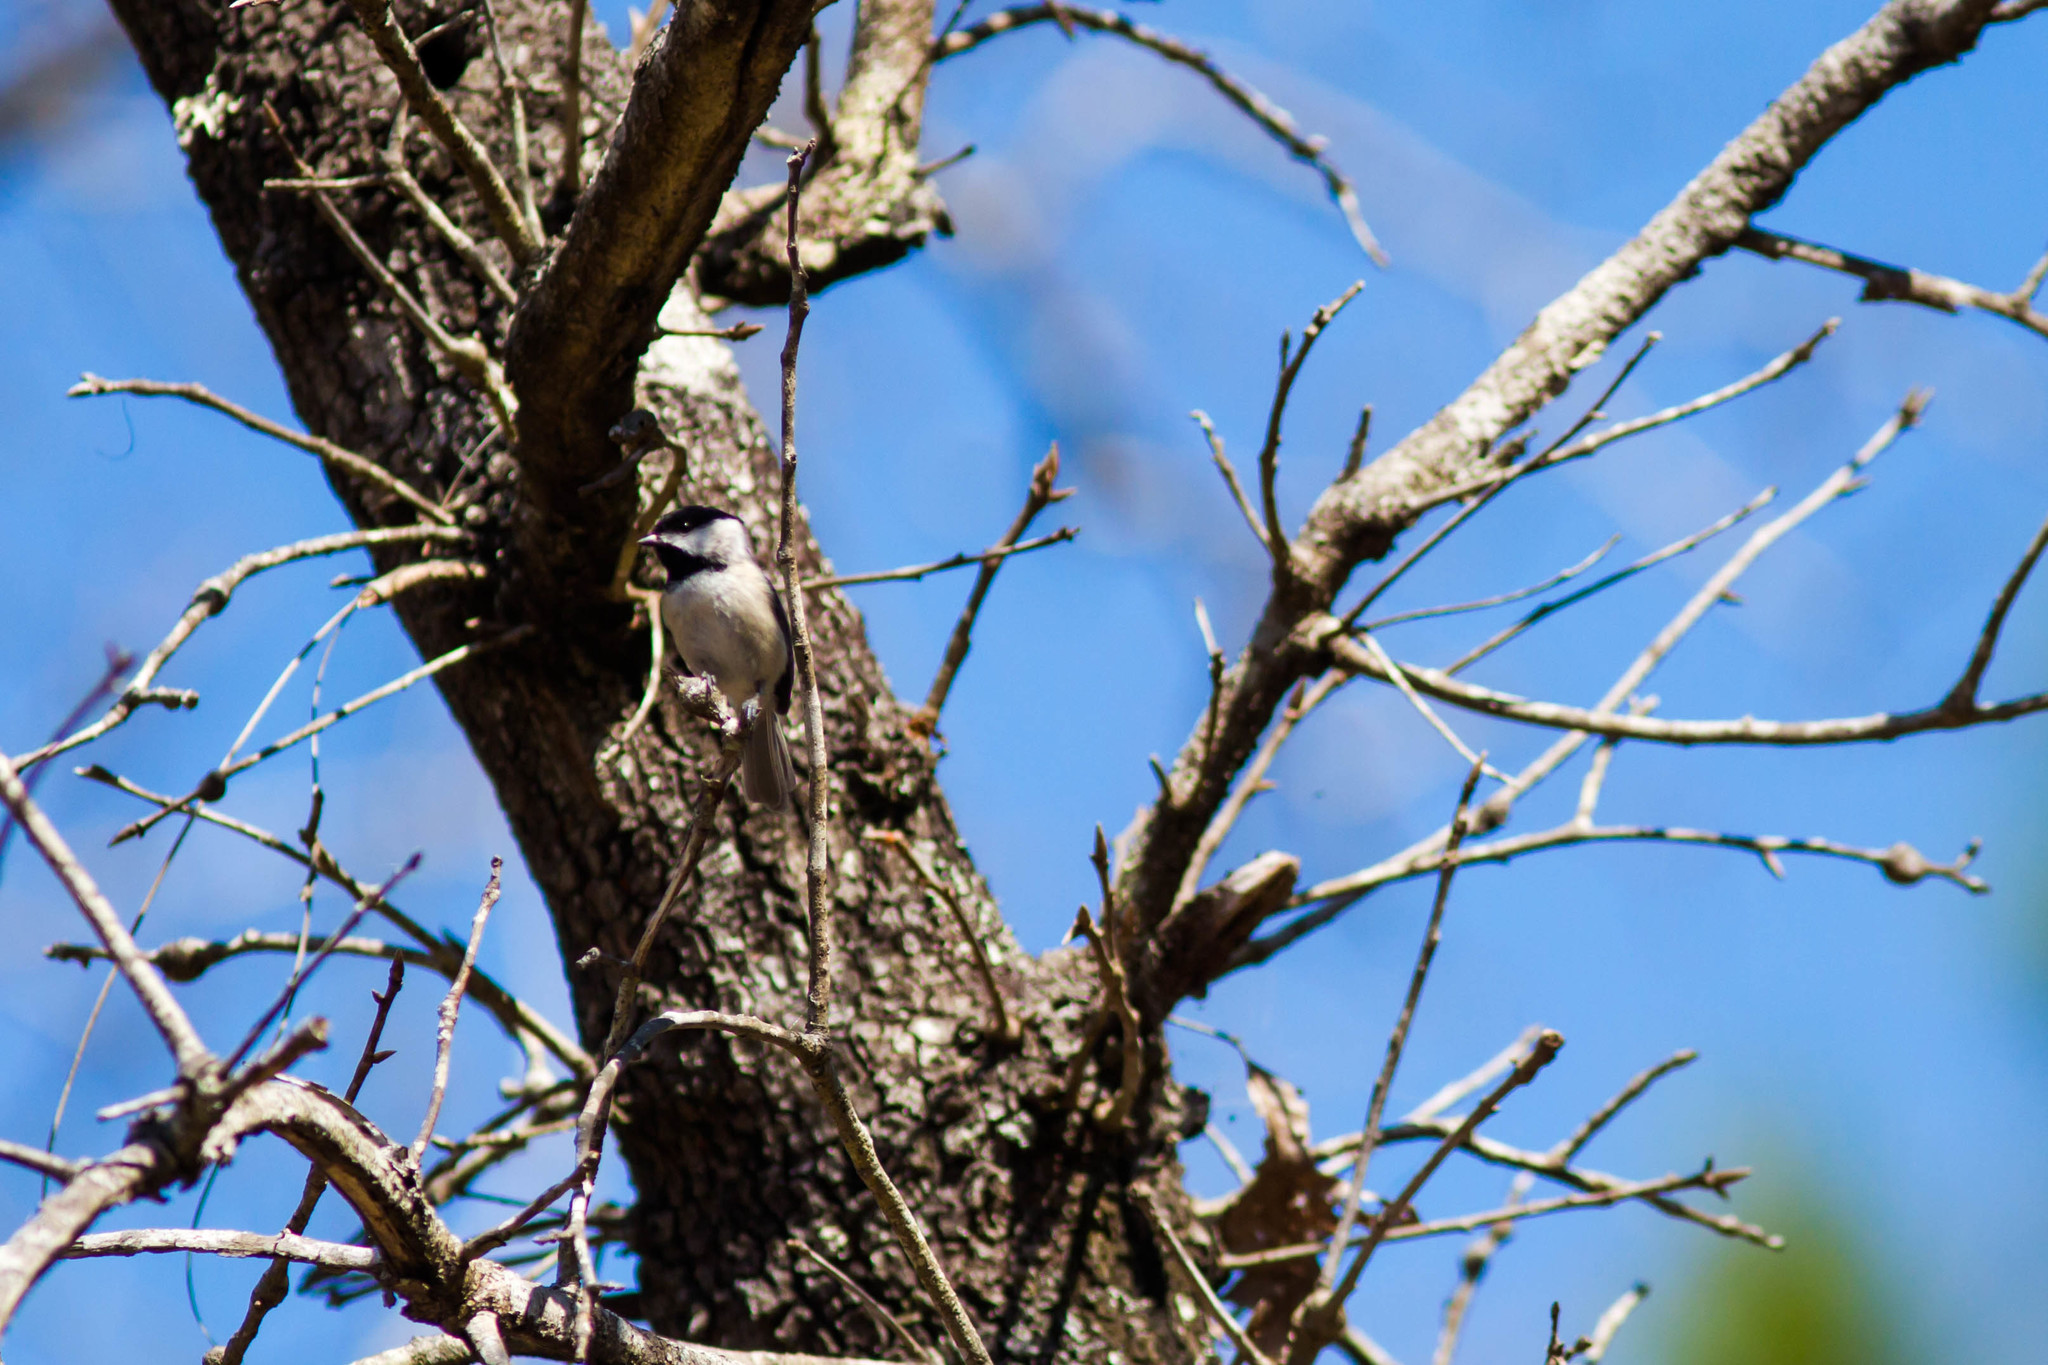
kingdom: Animalia
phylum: Chordata
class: Aves
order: Passeriformes
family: Paridae
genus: Poecile
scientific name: Poecile carolinensis
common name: Carolina chickadee
